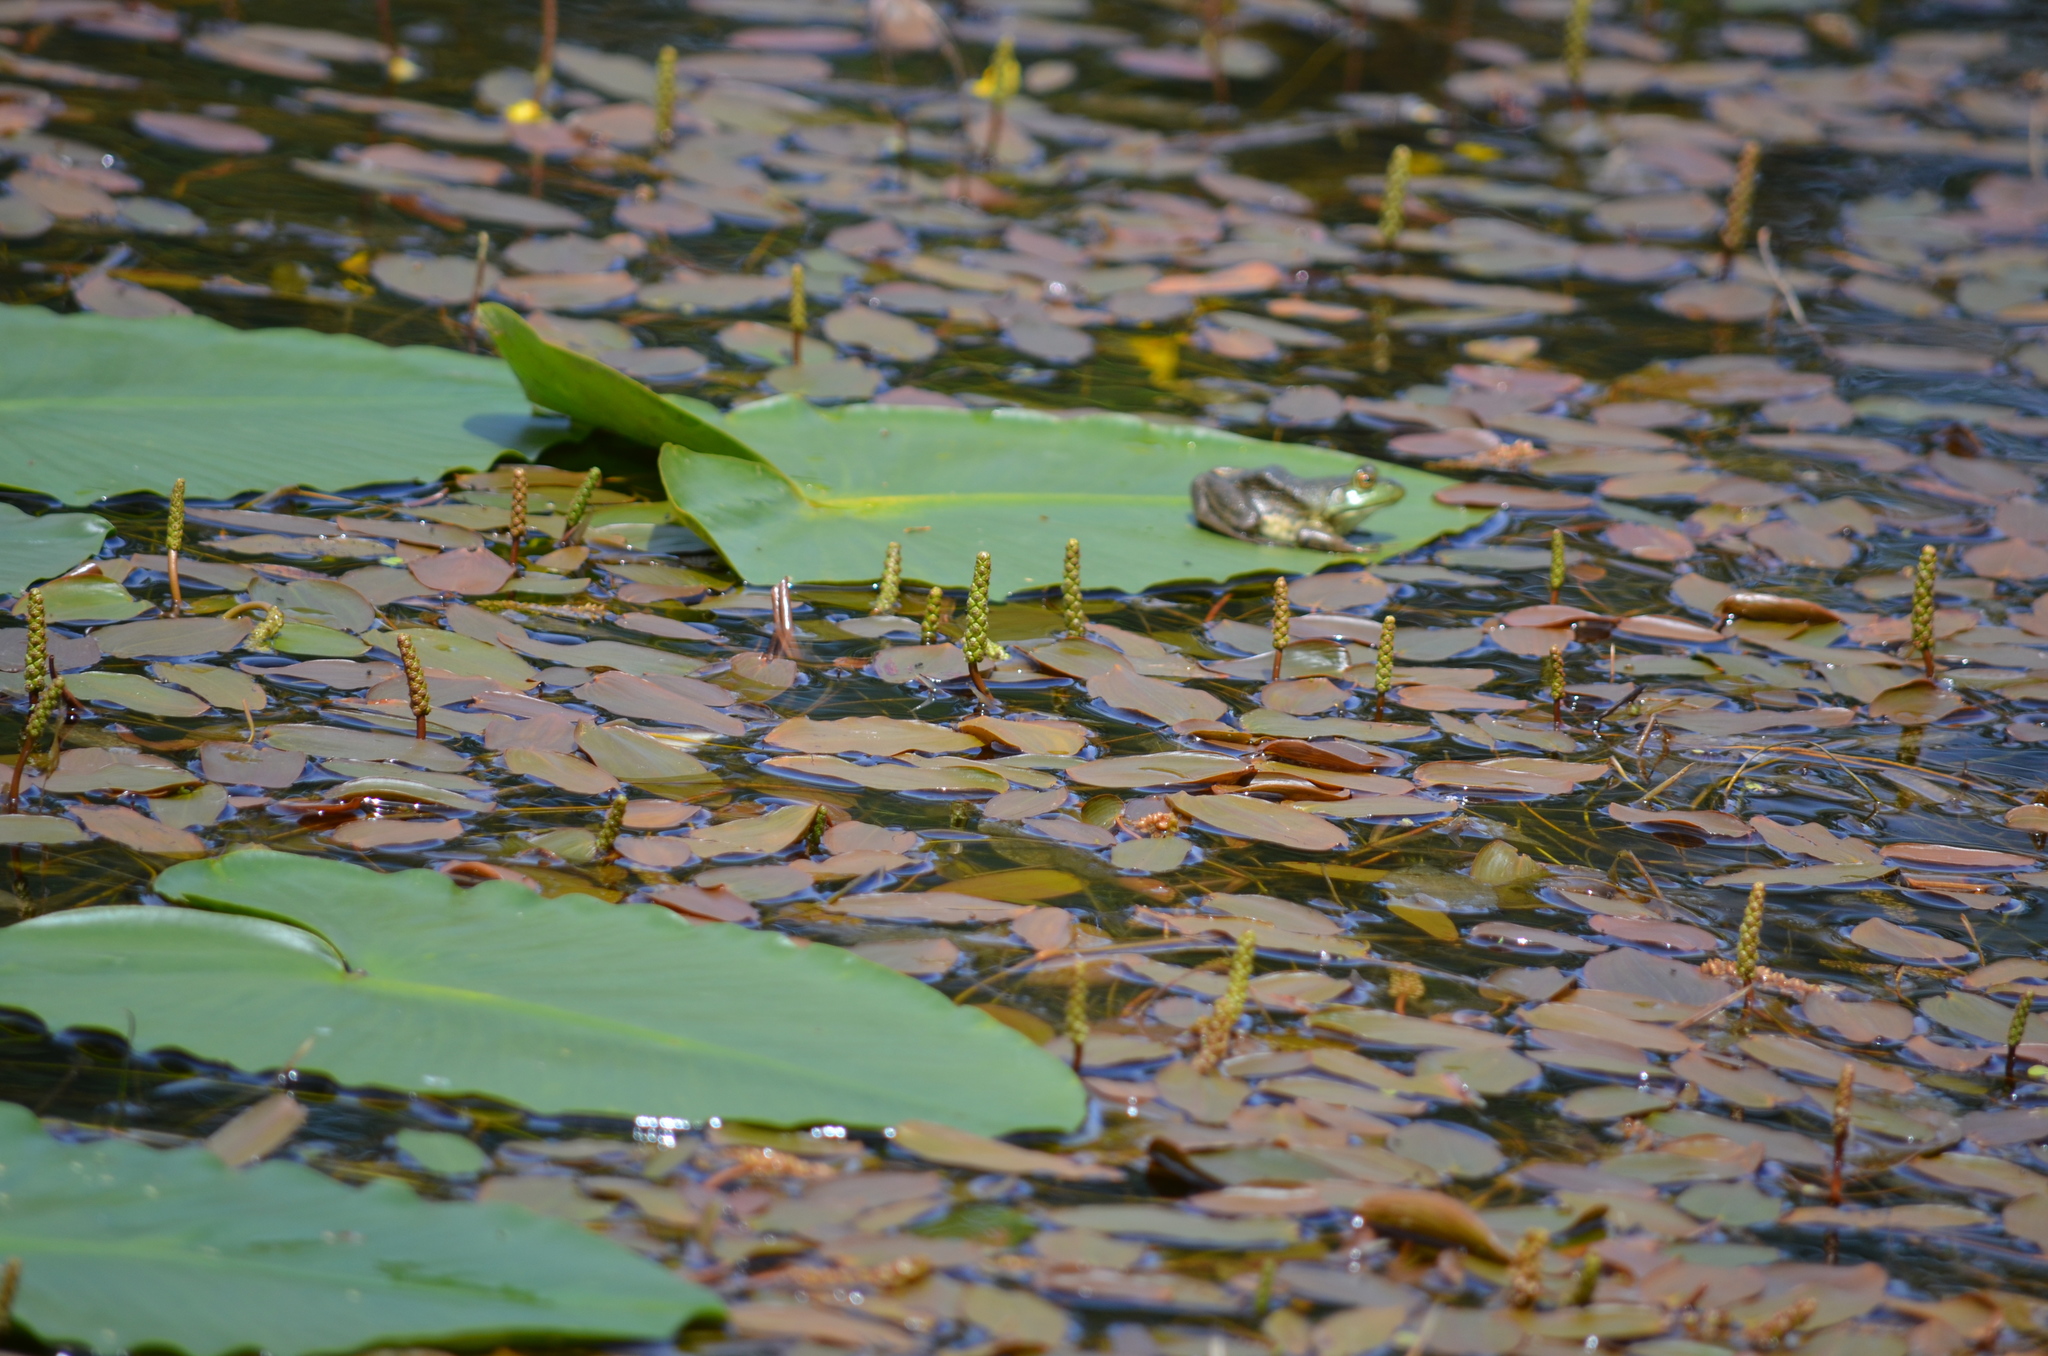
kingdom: Plantae
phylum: Tracheophyta
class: Liliopsida
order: Alismatales
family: Potamogetonaceae
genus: Potamogeton
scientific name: Potamogeton natans
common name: Broad-leaved pondweed
